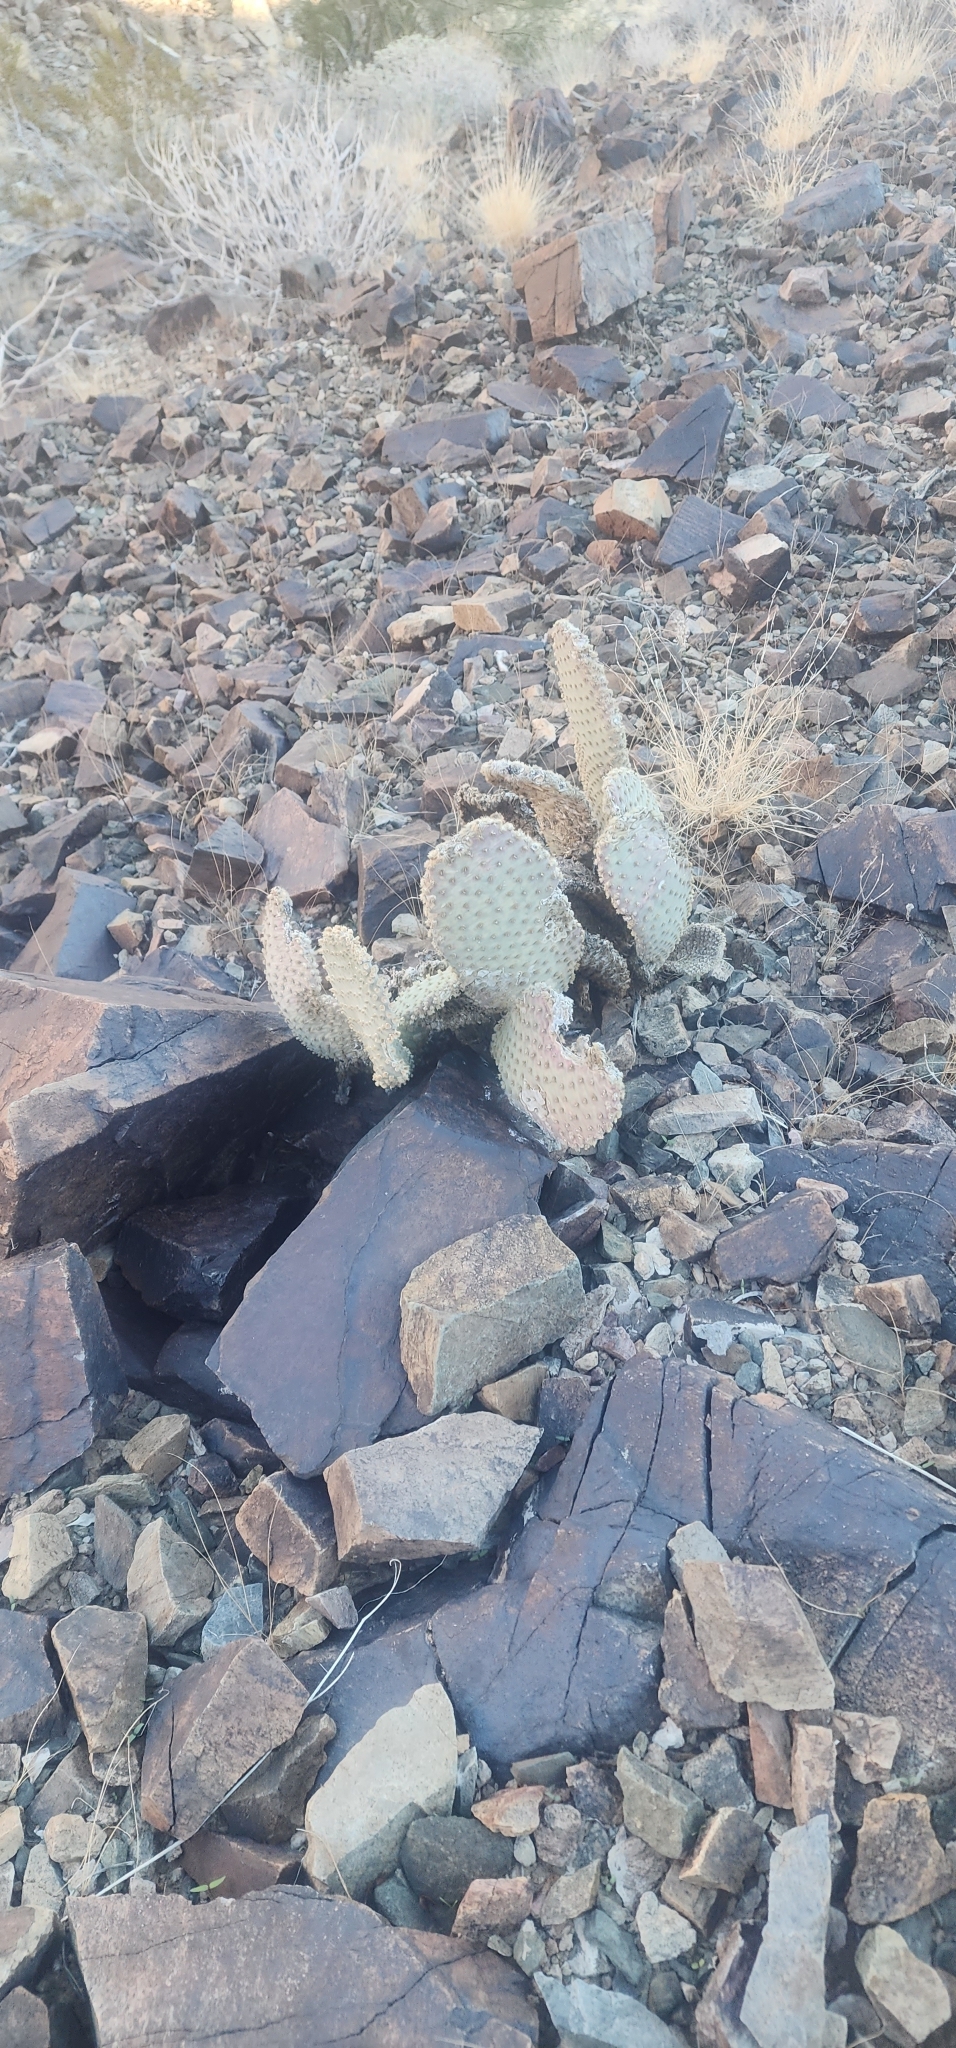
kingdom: Plantae
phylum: Tracheophyta
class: Magnoliopsida
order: Caryophyllales
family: Cactaceae
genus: Opuntia
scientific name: Opuntia basilaris
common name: Beavertail prickly-pear
